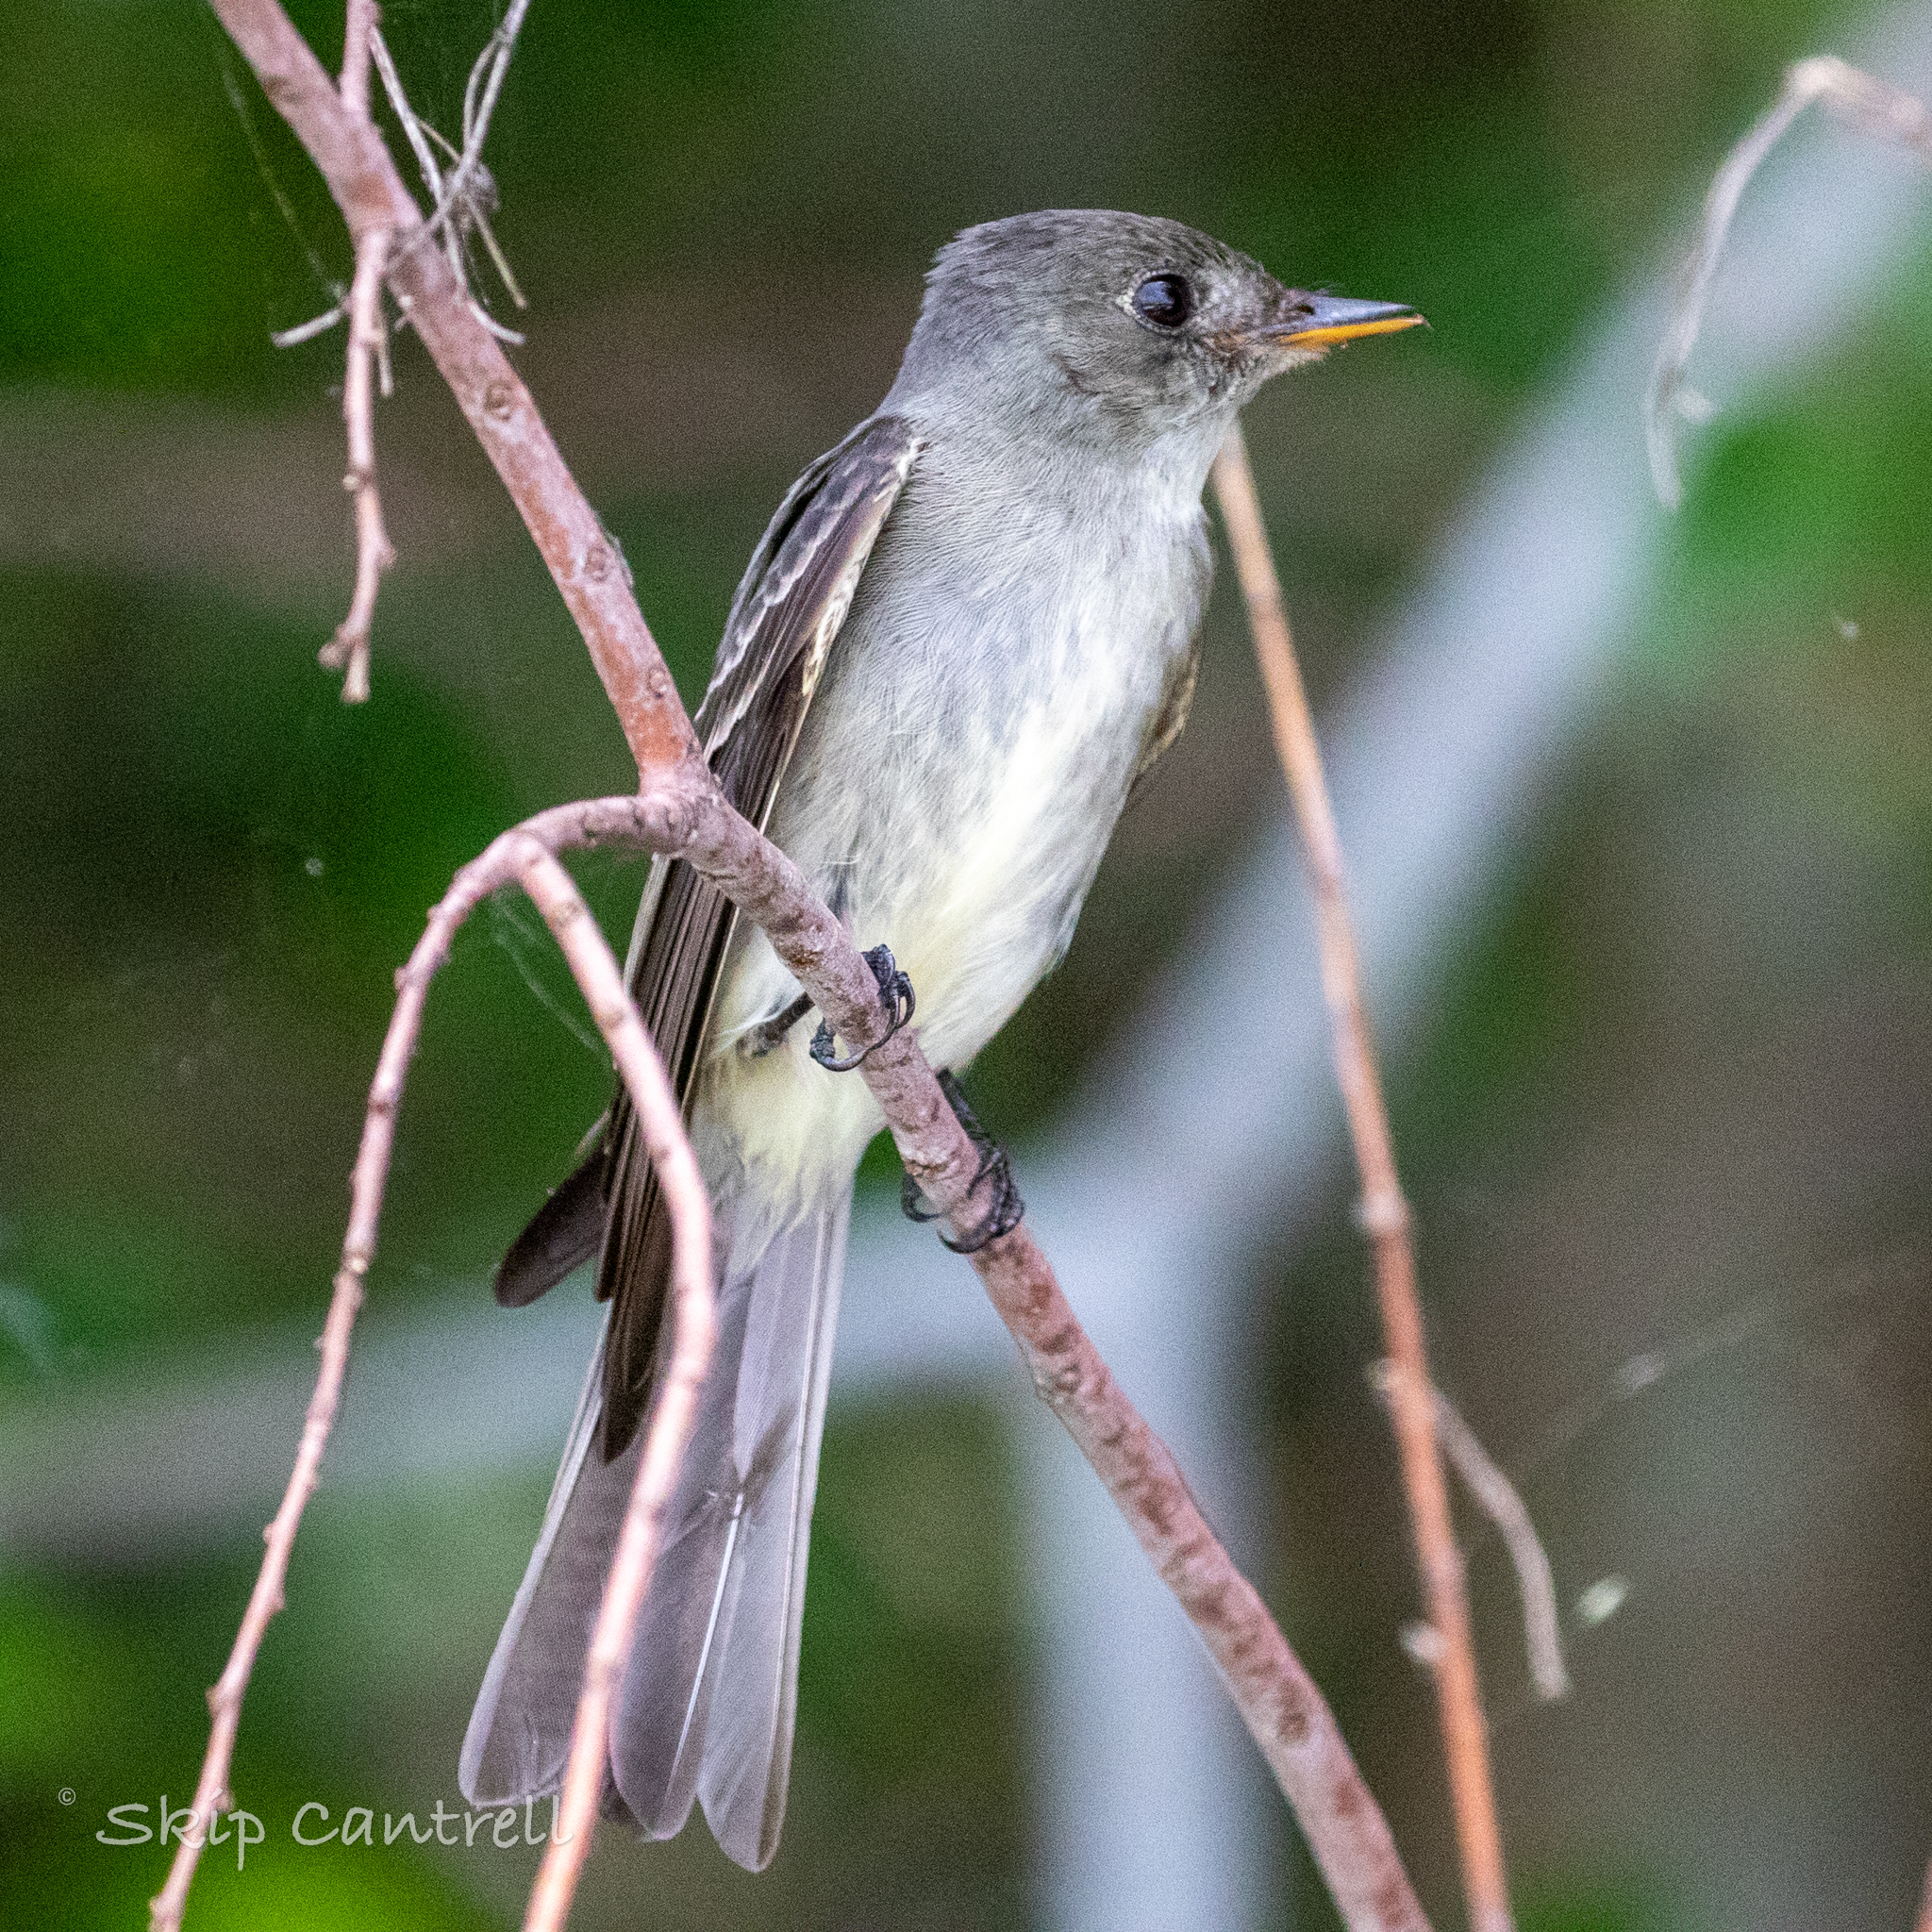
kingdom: Animalia
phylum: Chordata
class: Aves
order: Passeriformes
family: Tyrannidae
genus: Contopus
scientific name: Contopus virens
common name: Eastern wood-pewee
